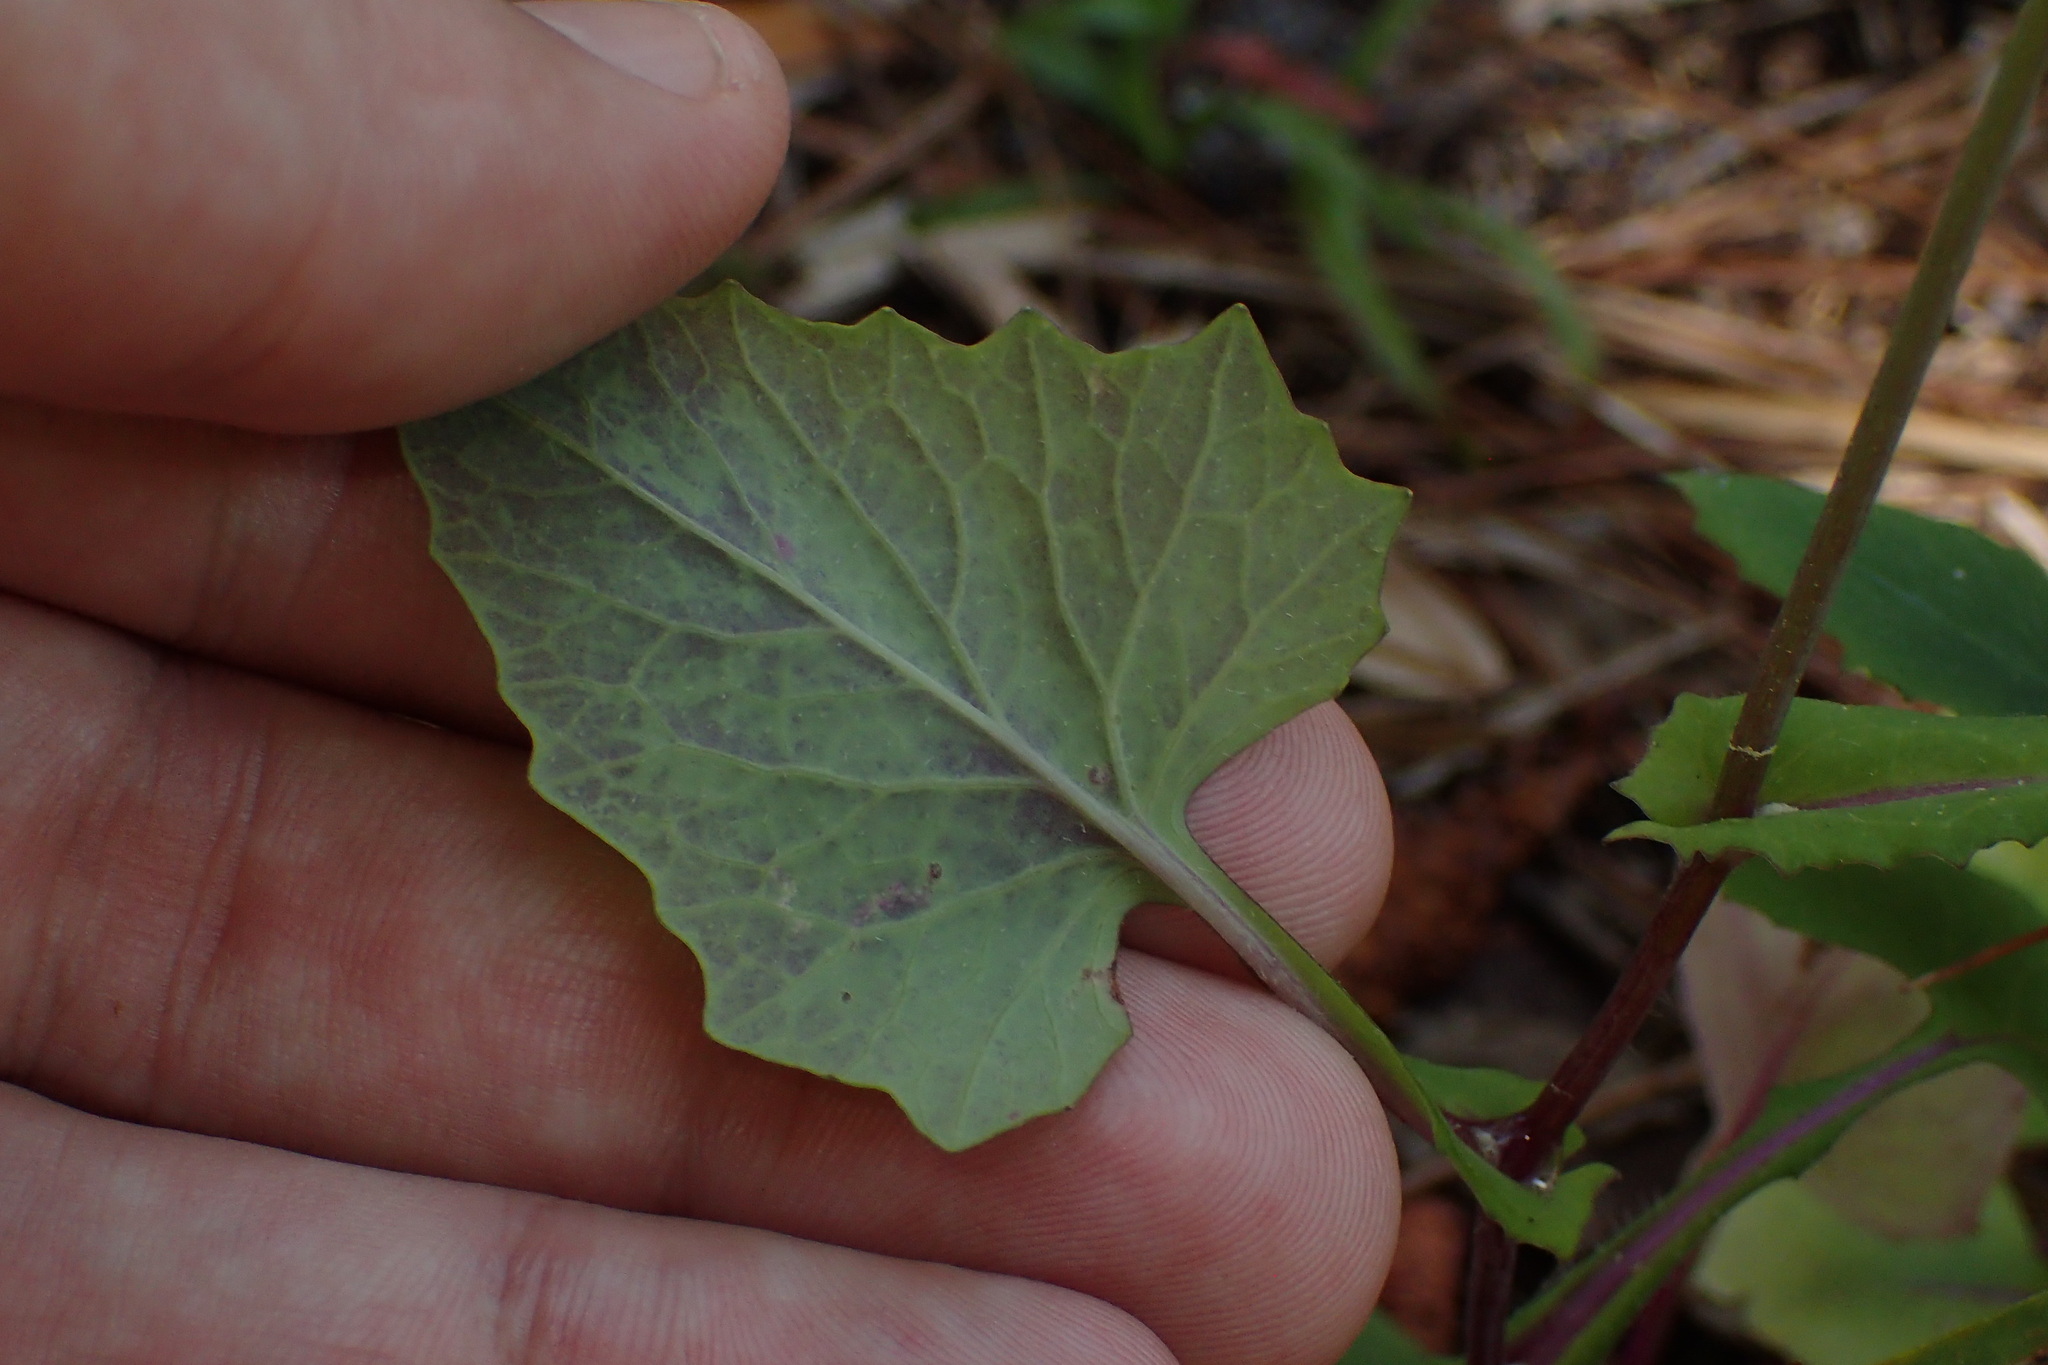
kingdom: Plantae
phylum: Tracheophyta
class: Magnoliopsida
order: Asterales
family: Asteraceae
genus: Emilia
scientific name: Emilia sonchifolia
